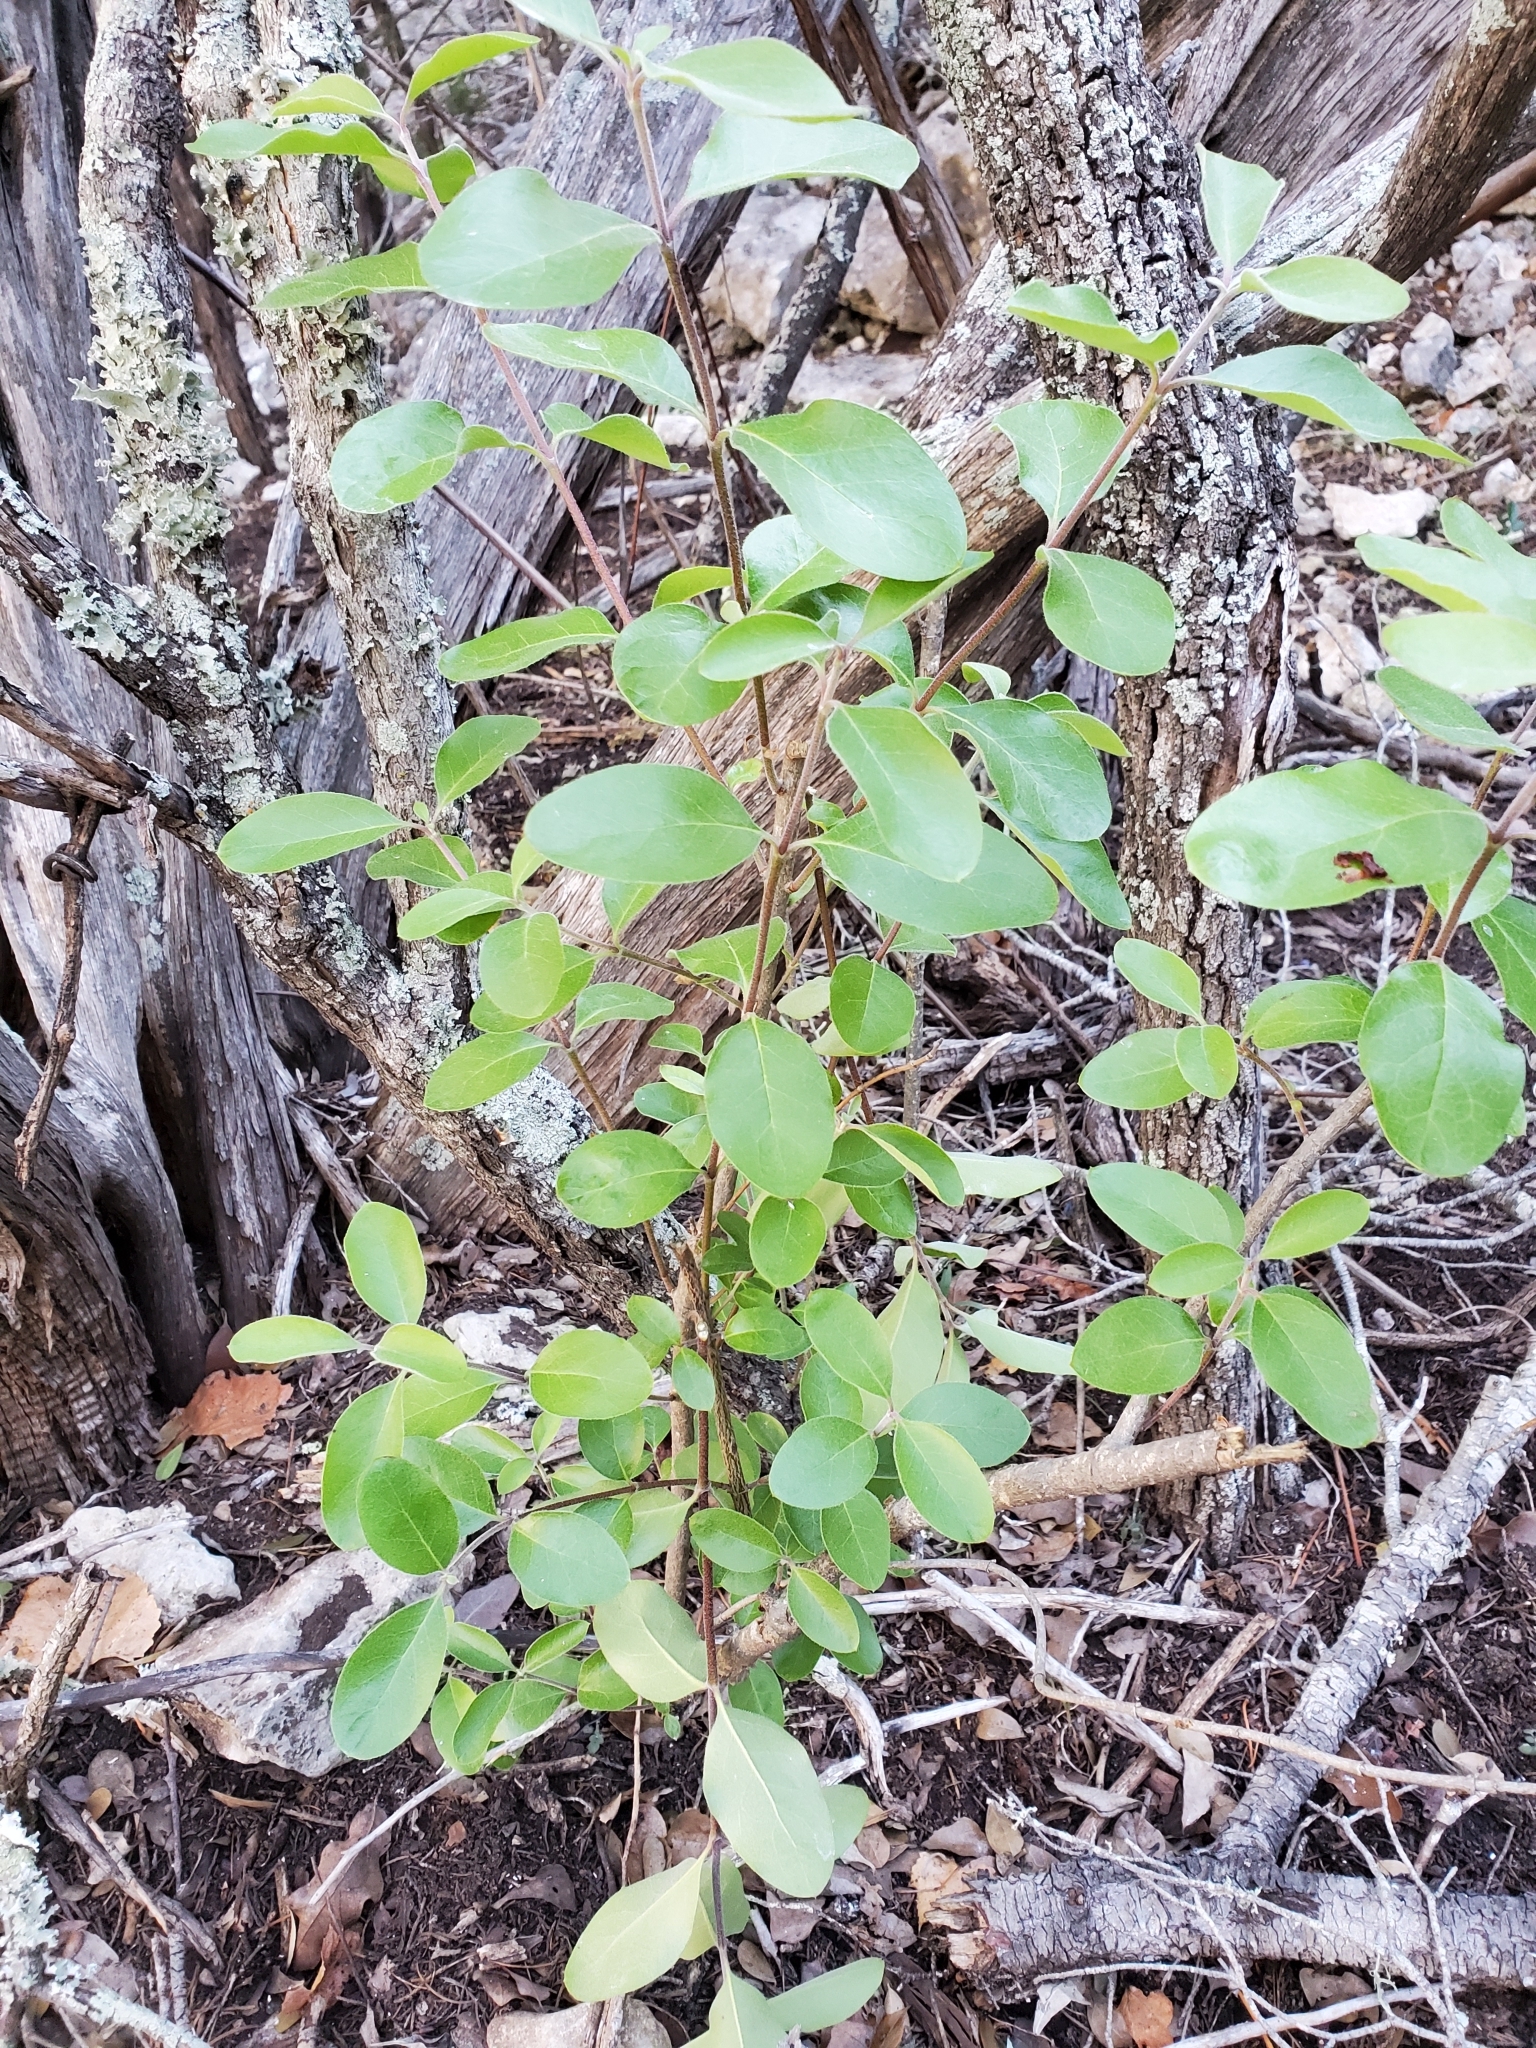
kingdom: Plantae
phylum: Tracheophyta
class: Magnoliopsida
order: Garryales
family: Garryaceae
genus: Garrya
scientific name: Garrya lindheimeri
